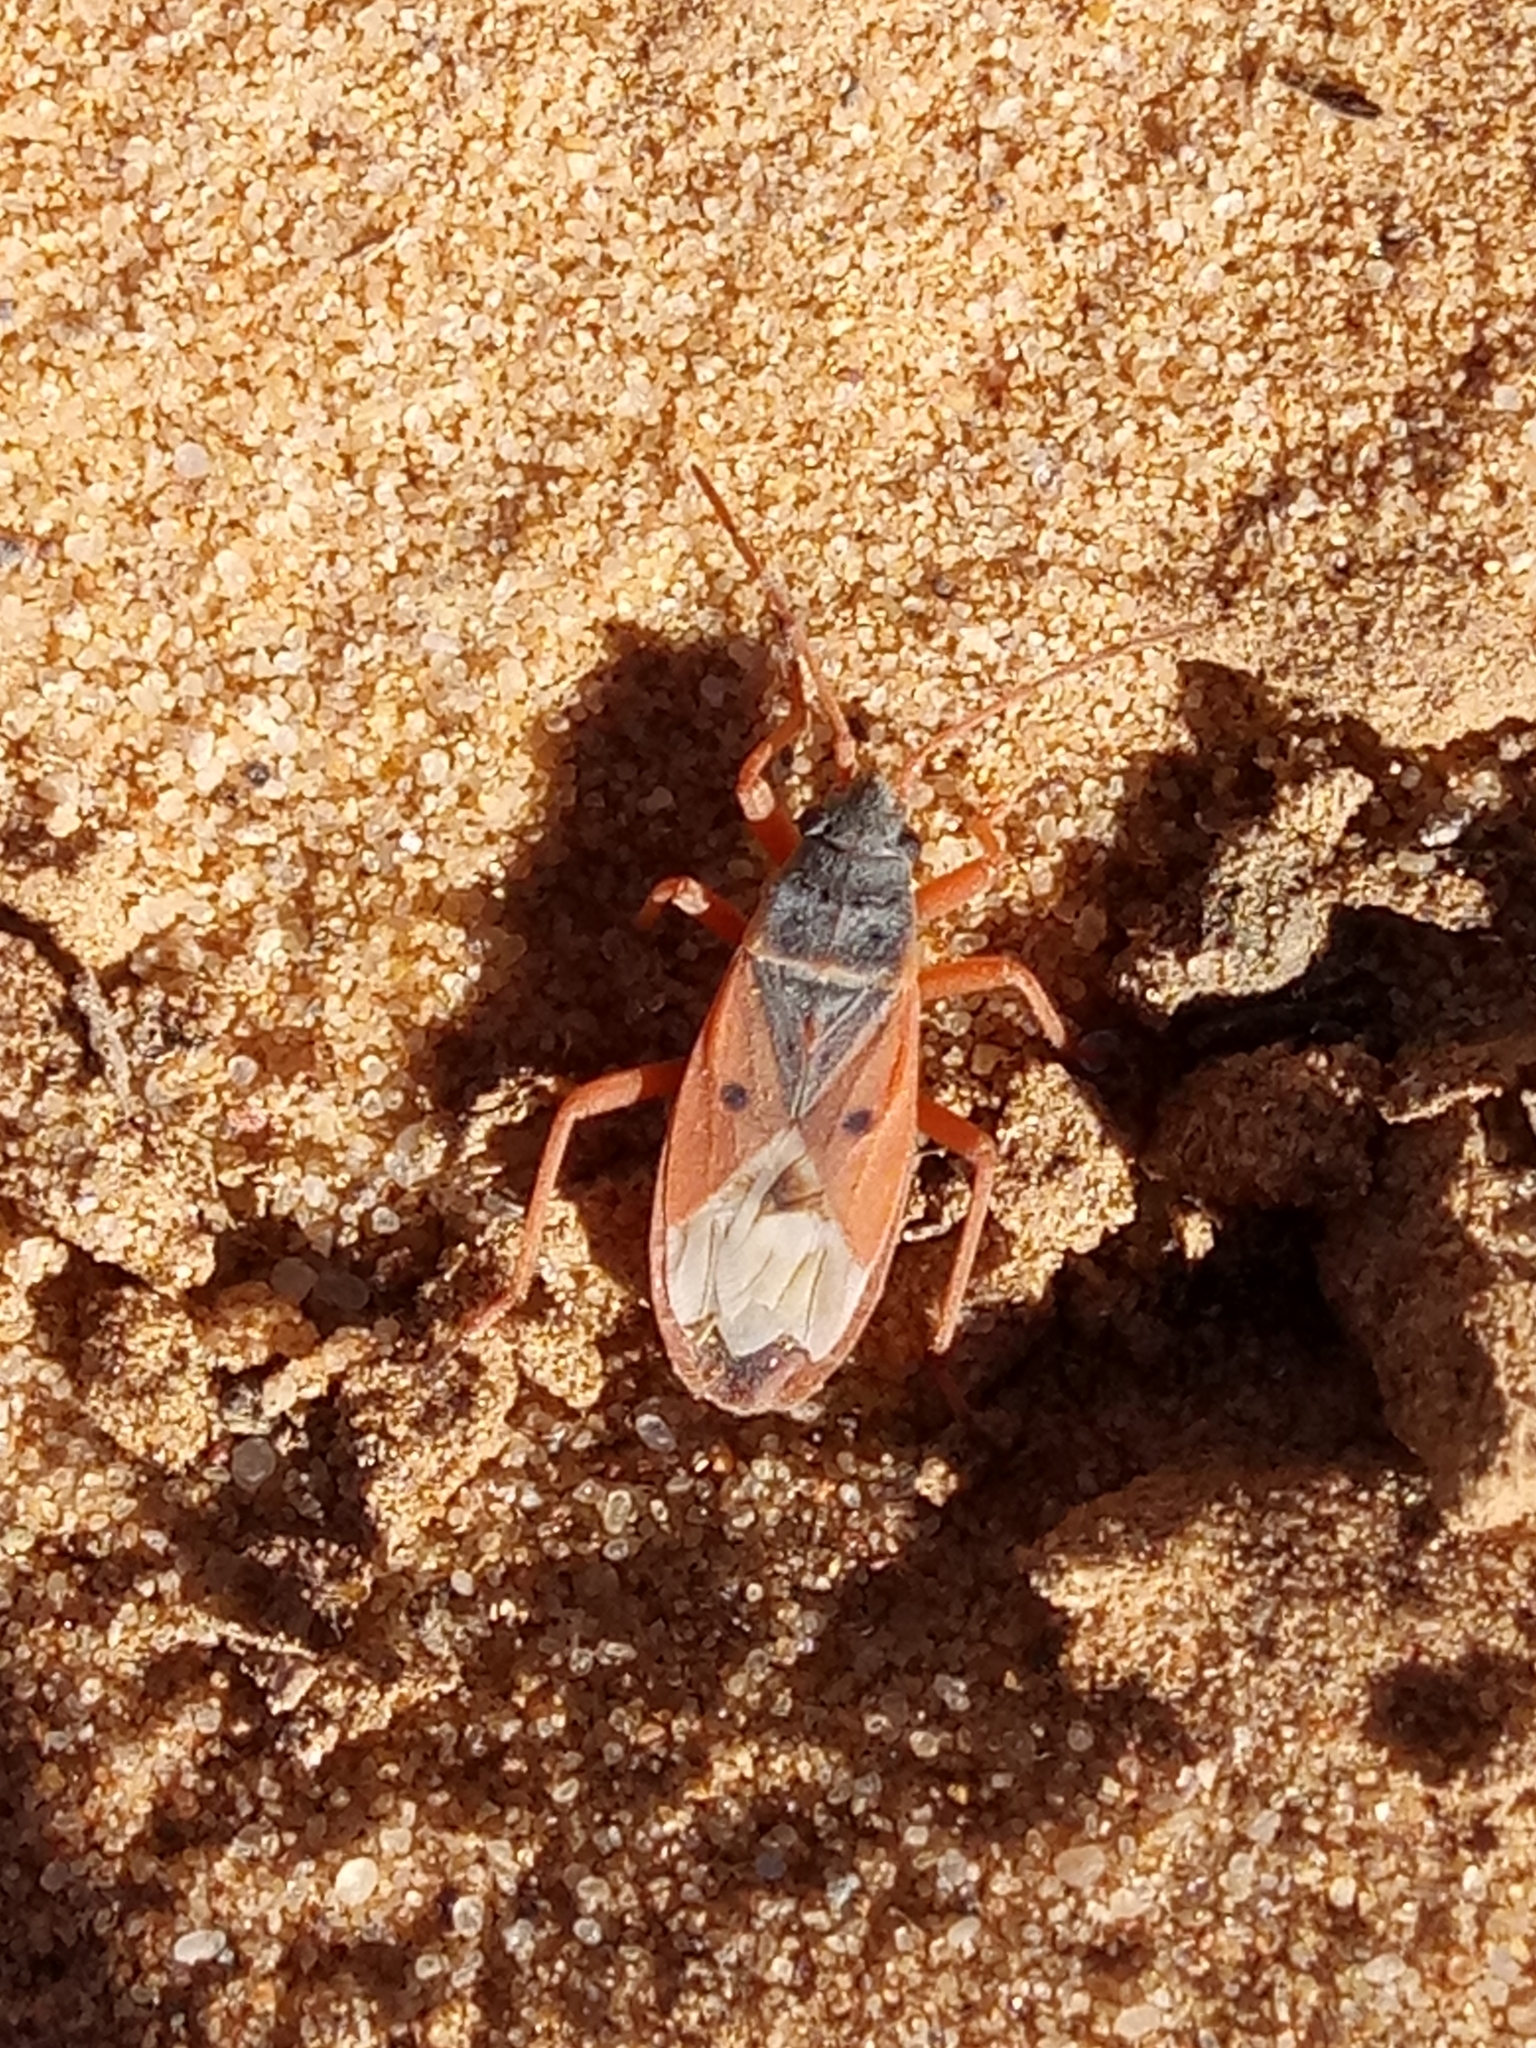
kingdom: Animalia
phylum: Arthropoda
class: Insecta
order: Hemiptera
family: Lygaeidae
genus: Cosmopleurus
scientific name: Cosmopleurus fulvipes
